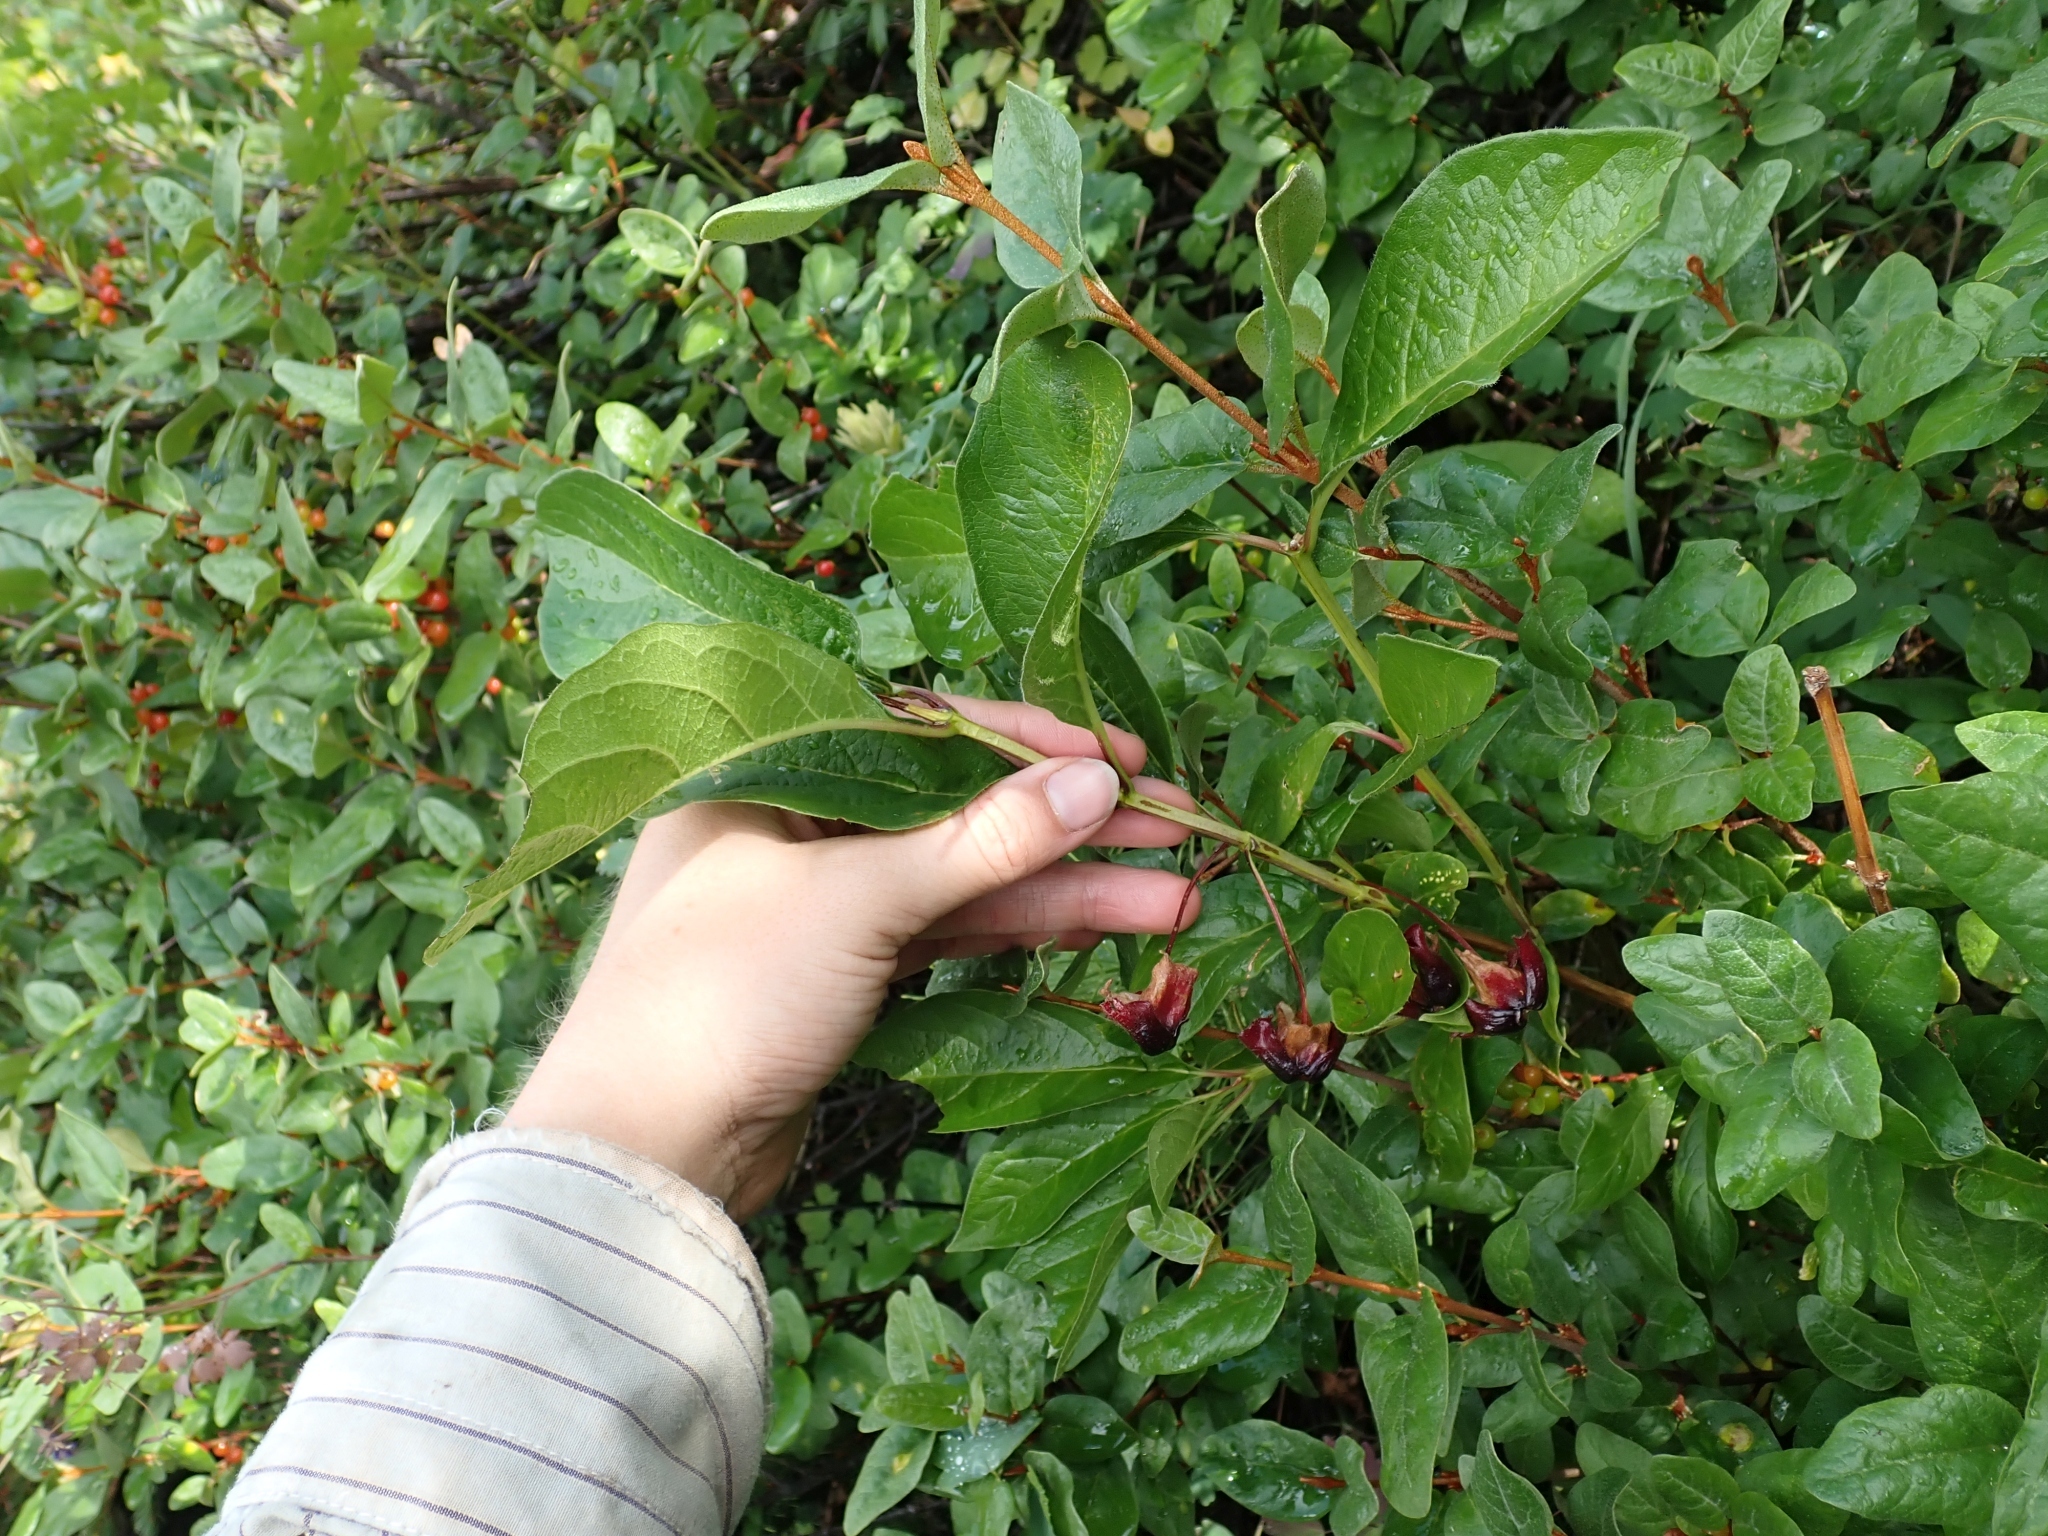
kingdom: Plantae
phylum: Tracheophyta
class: Magnoliopsida
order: Dipsacales
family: Caprifoliaceae
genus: Lonicera
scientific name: Lonicera involucrata
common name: Californian honeysuckle
